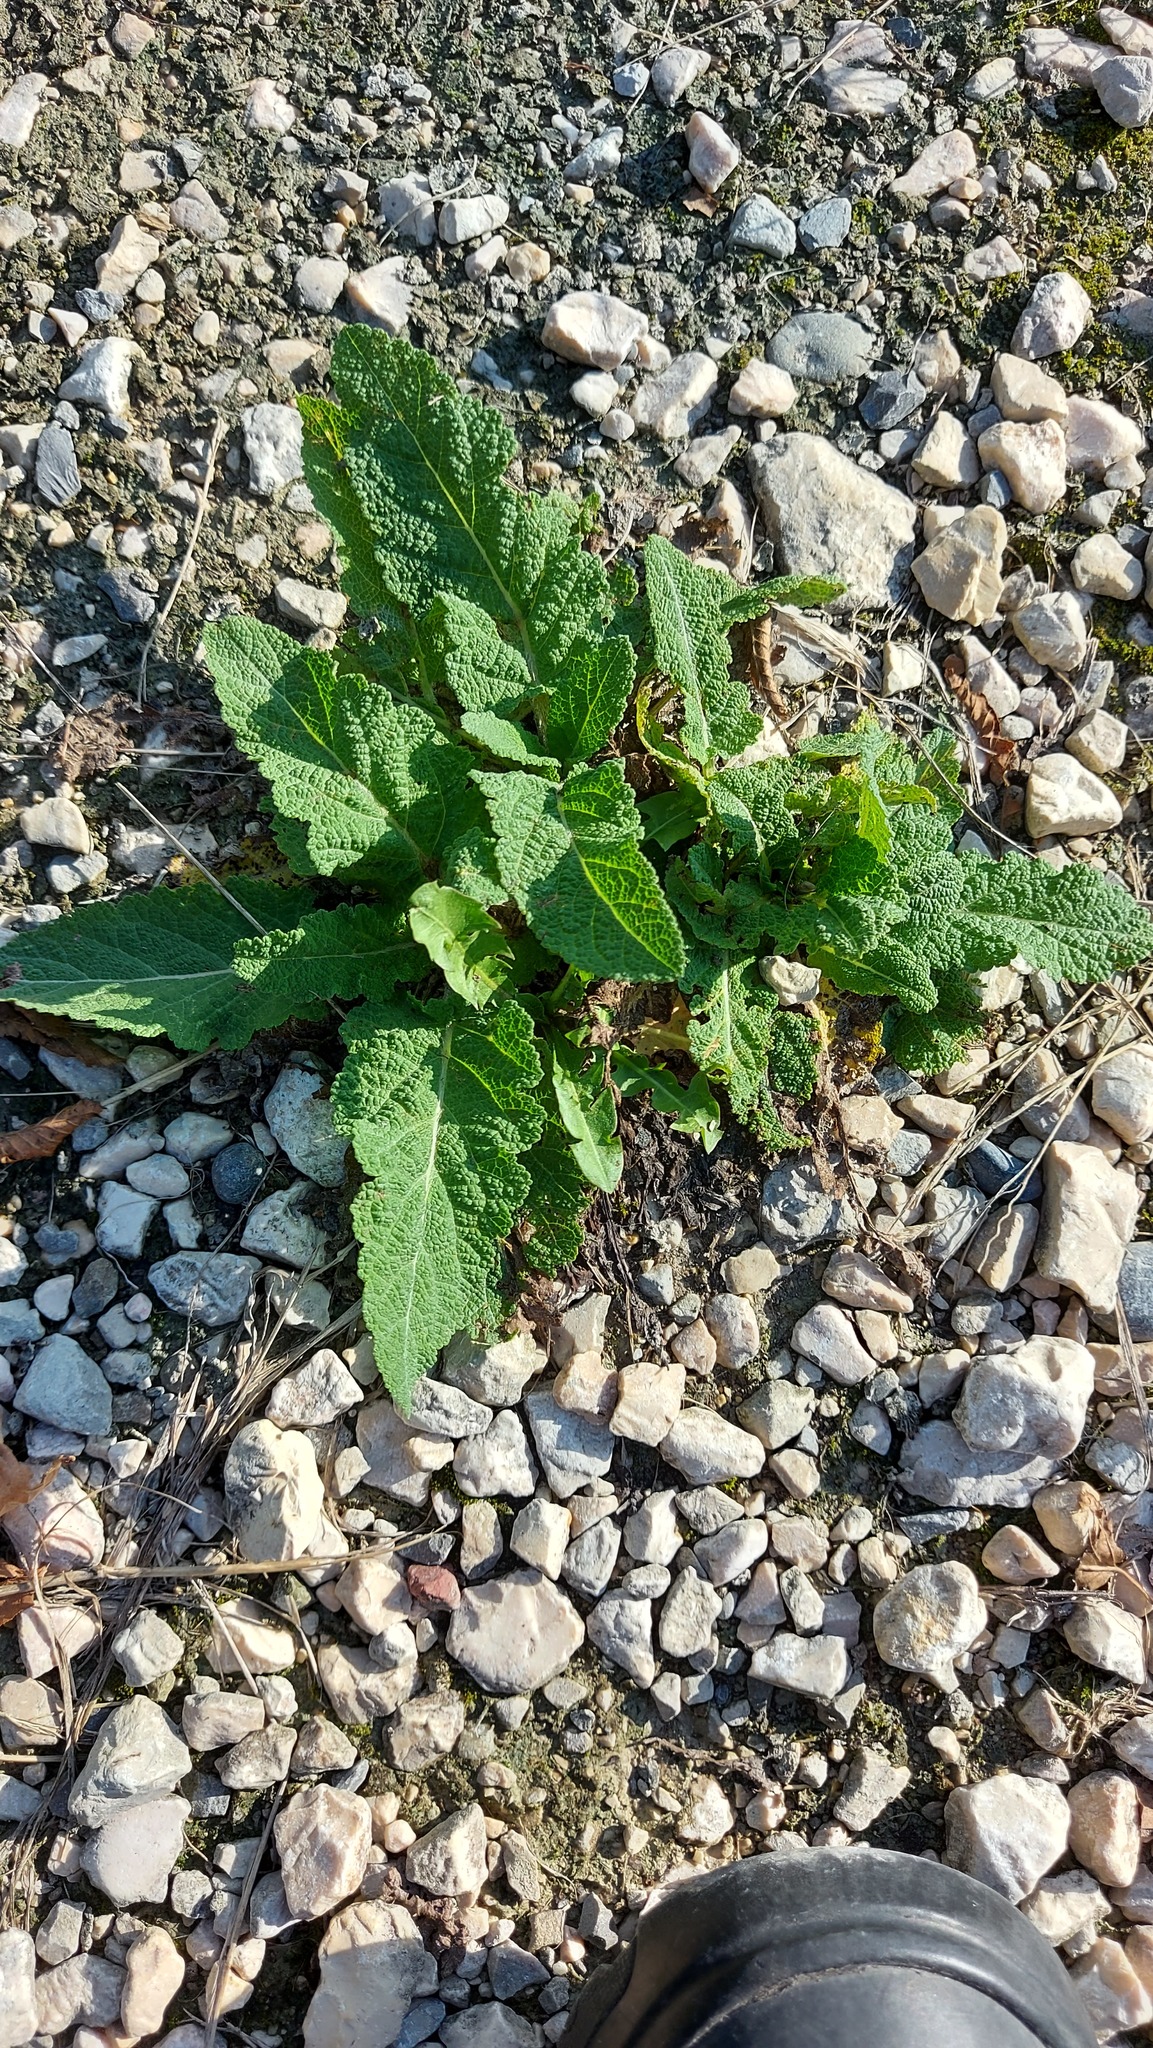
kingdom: Plantae
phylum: Tracheophyta
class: Magnoliopsida
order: Lamiales
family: Lamiaceae
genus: Salvia
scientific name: Salvia pratensis
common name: Meadow sage
